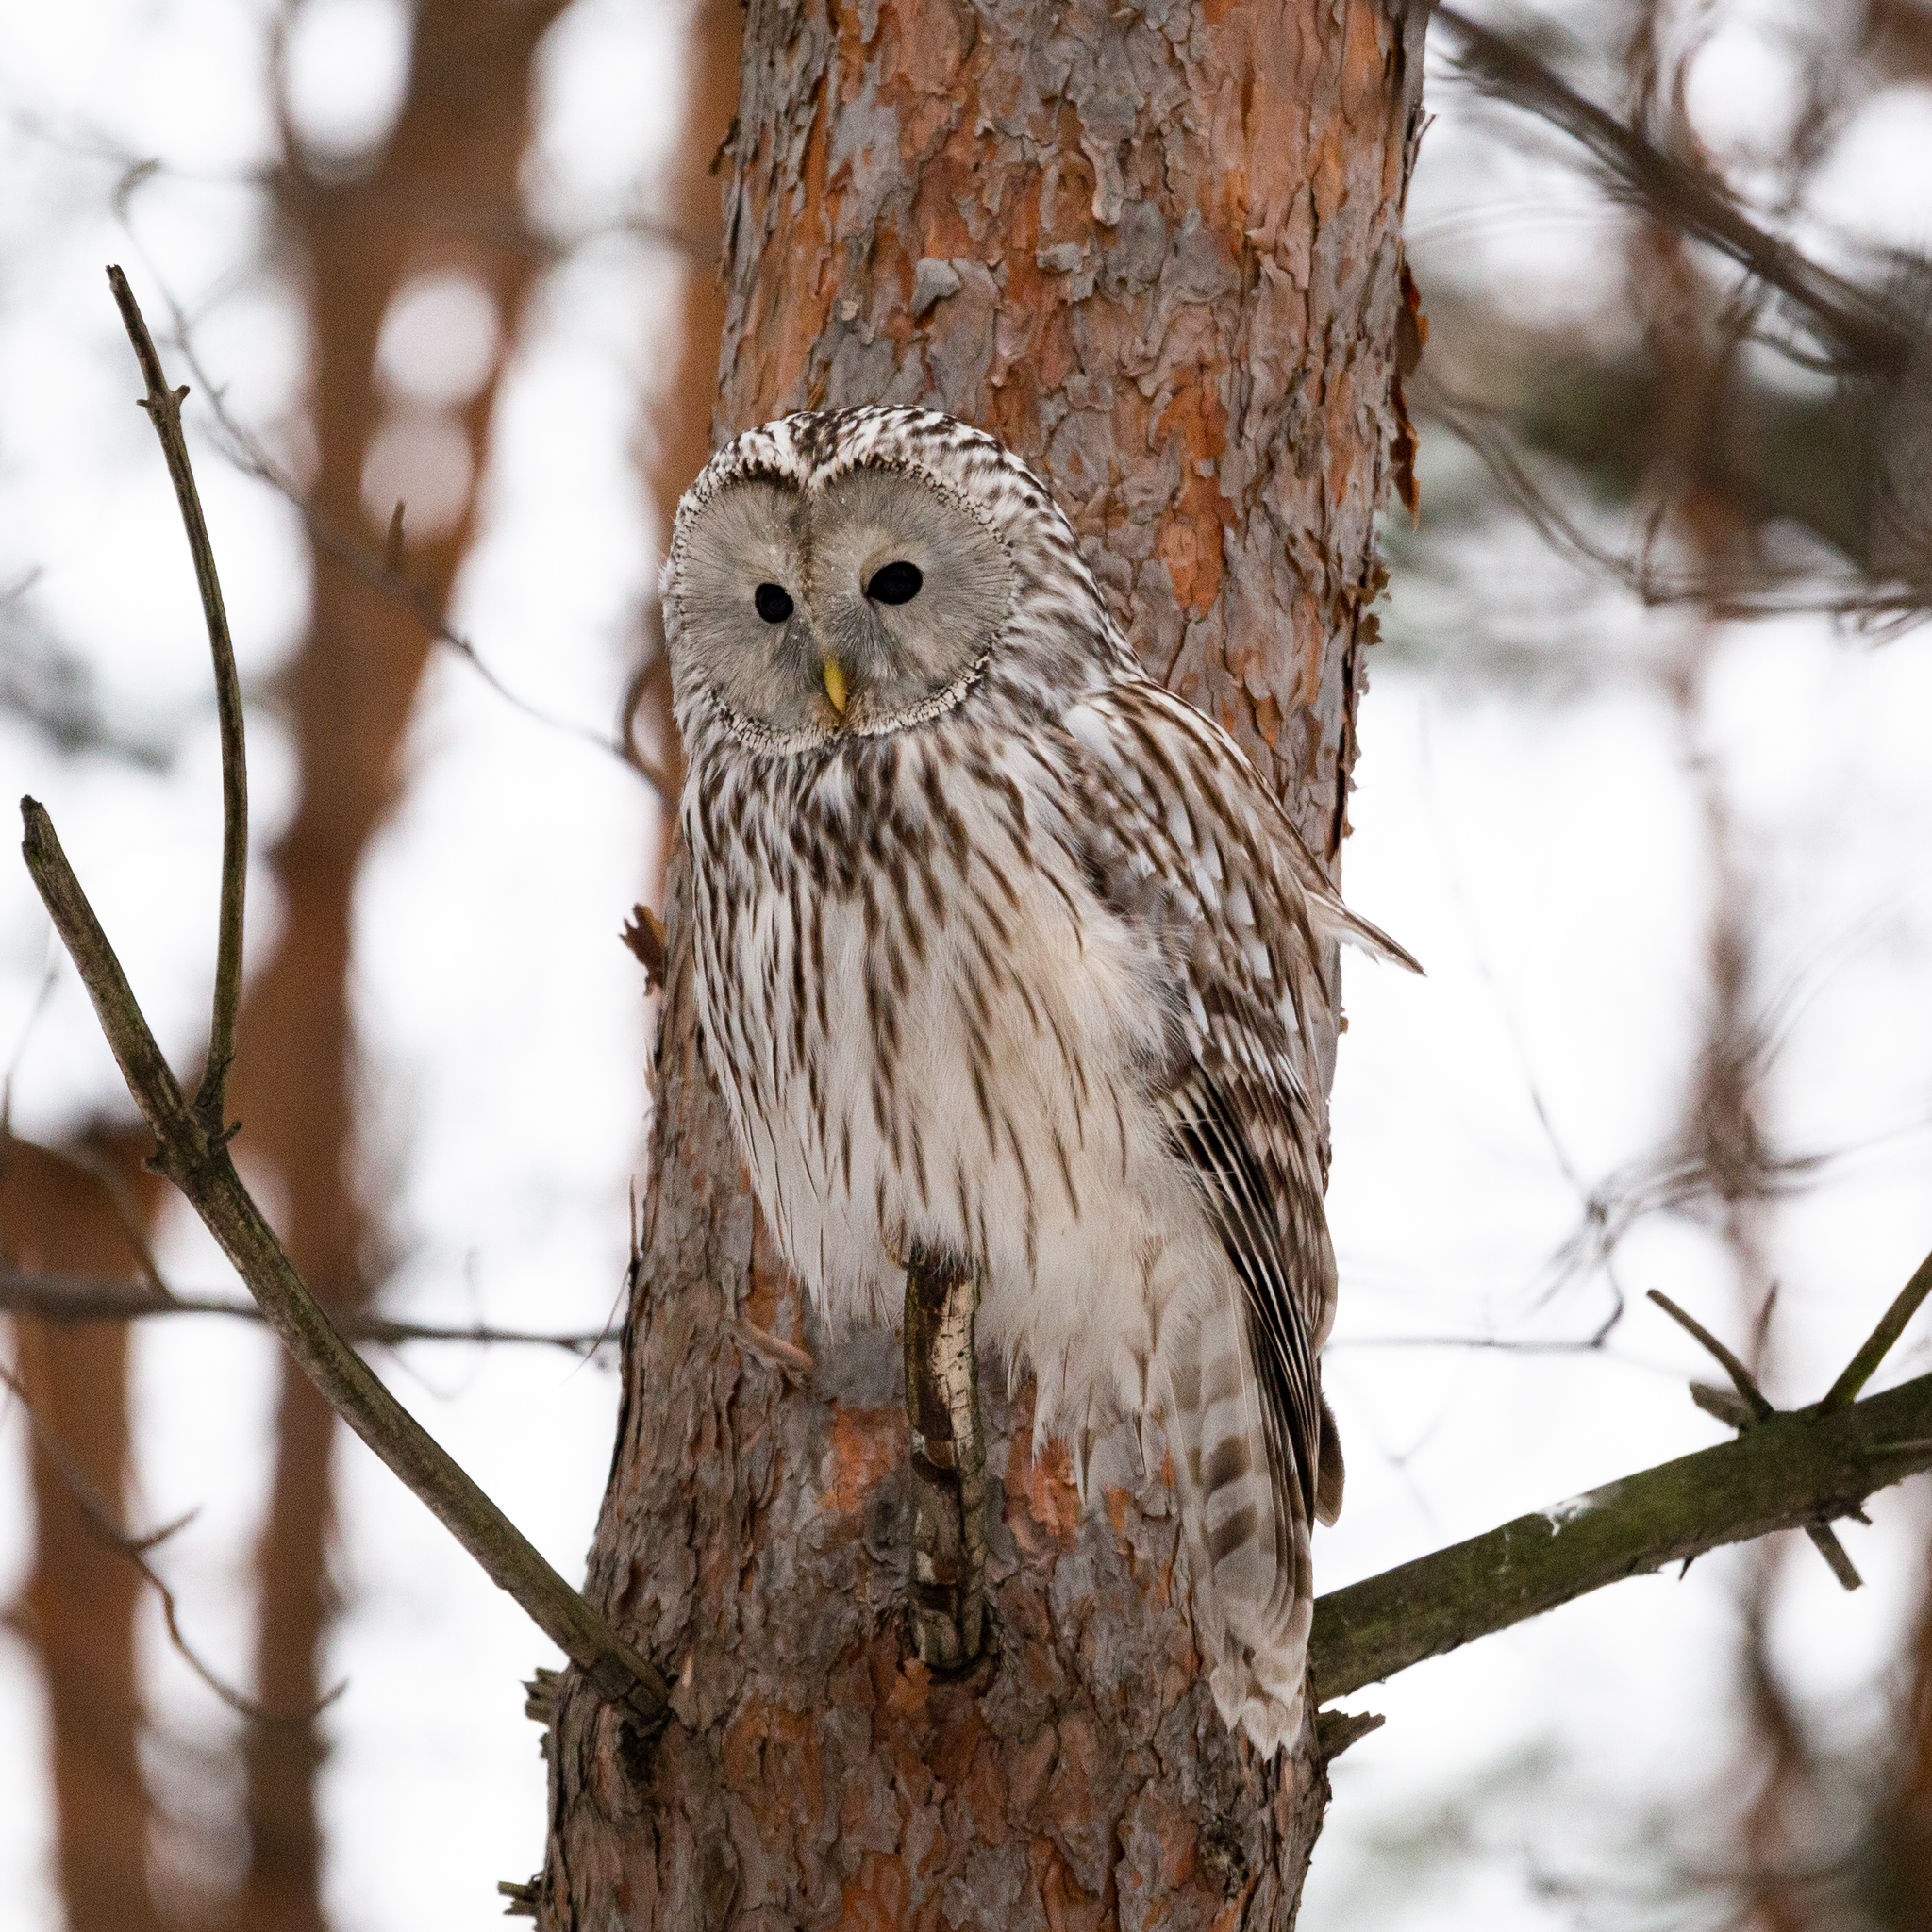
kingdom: Animalia
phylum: Chordata
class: Aves
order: Strigiformes
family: Strigidae
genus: Strix
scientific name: Strix uralensis
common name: Ural owl
